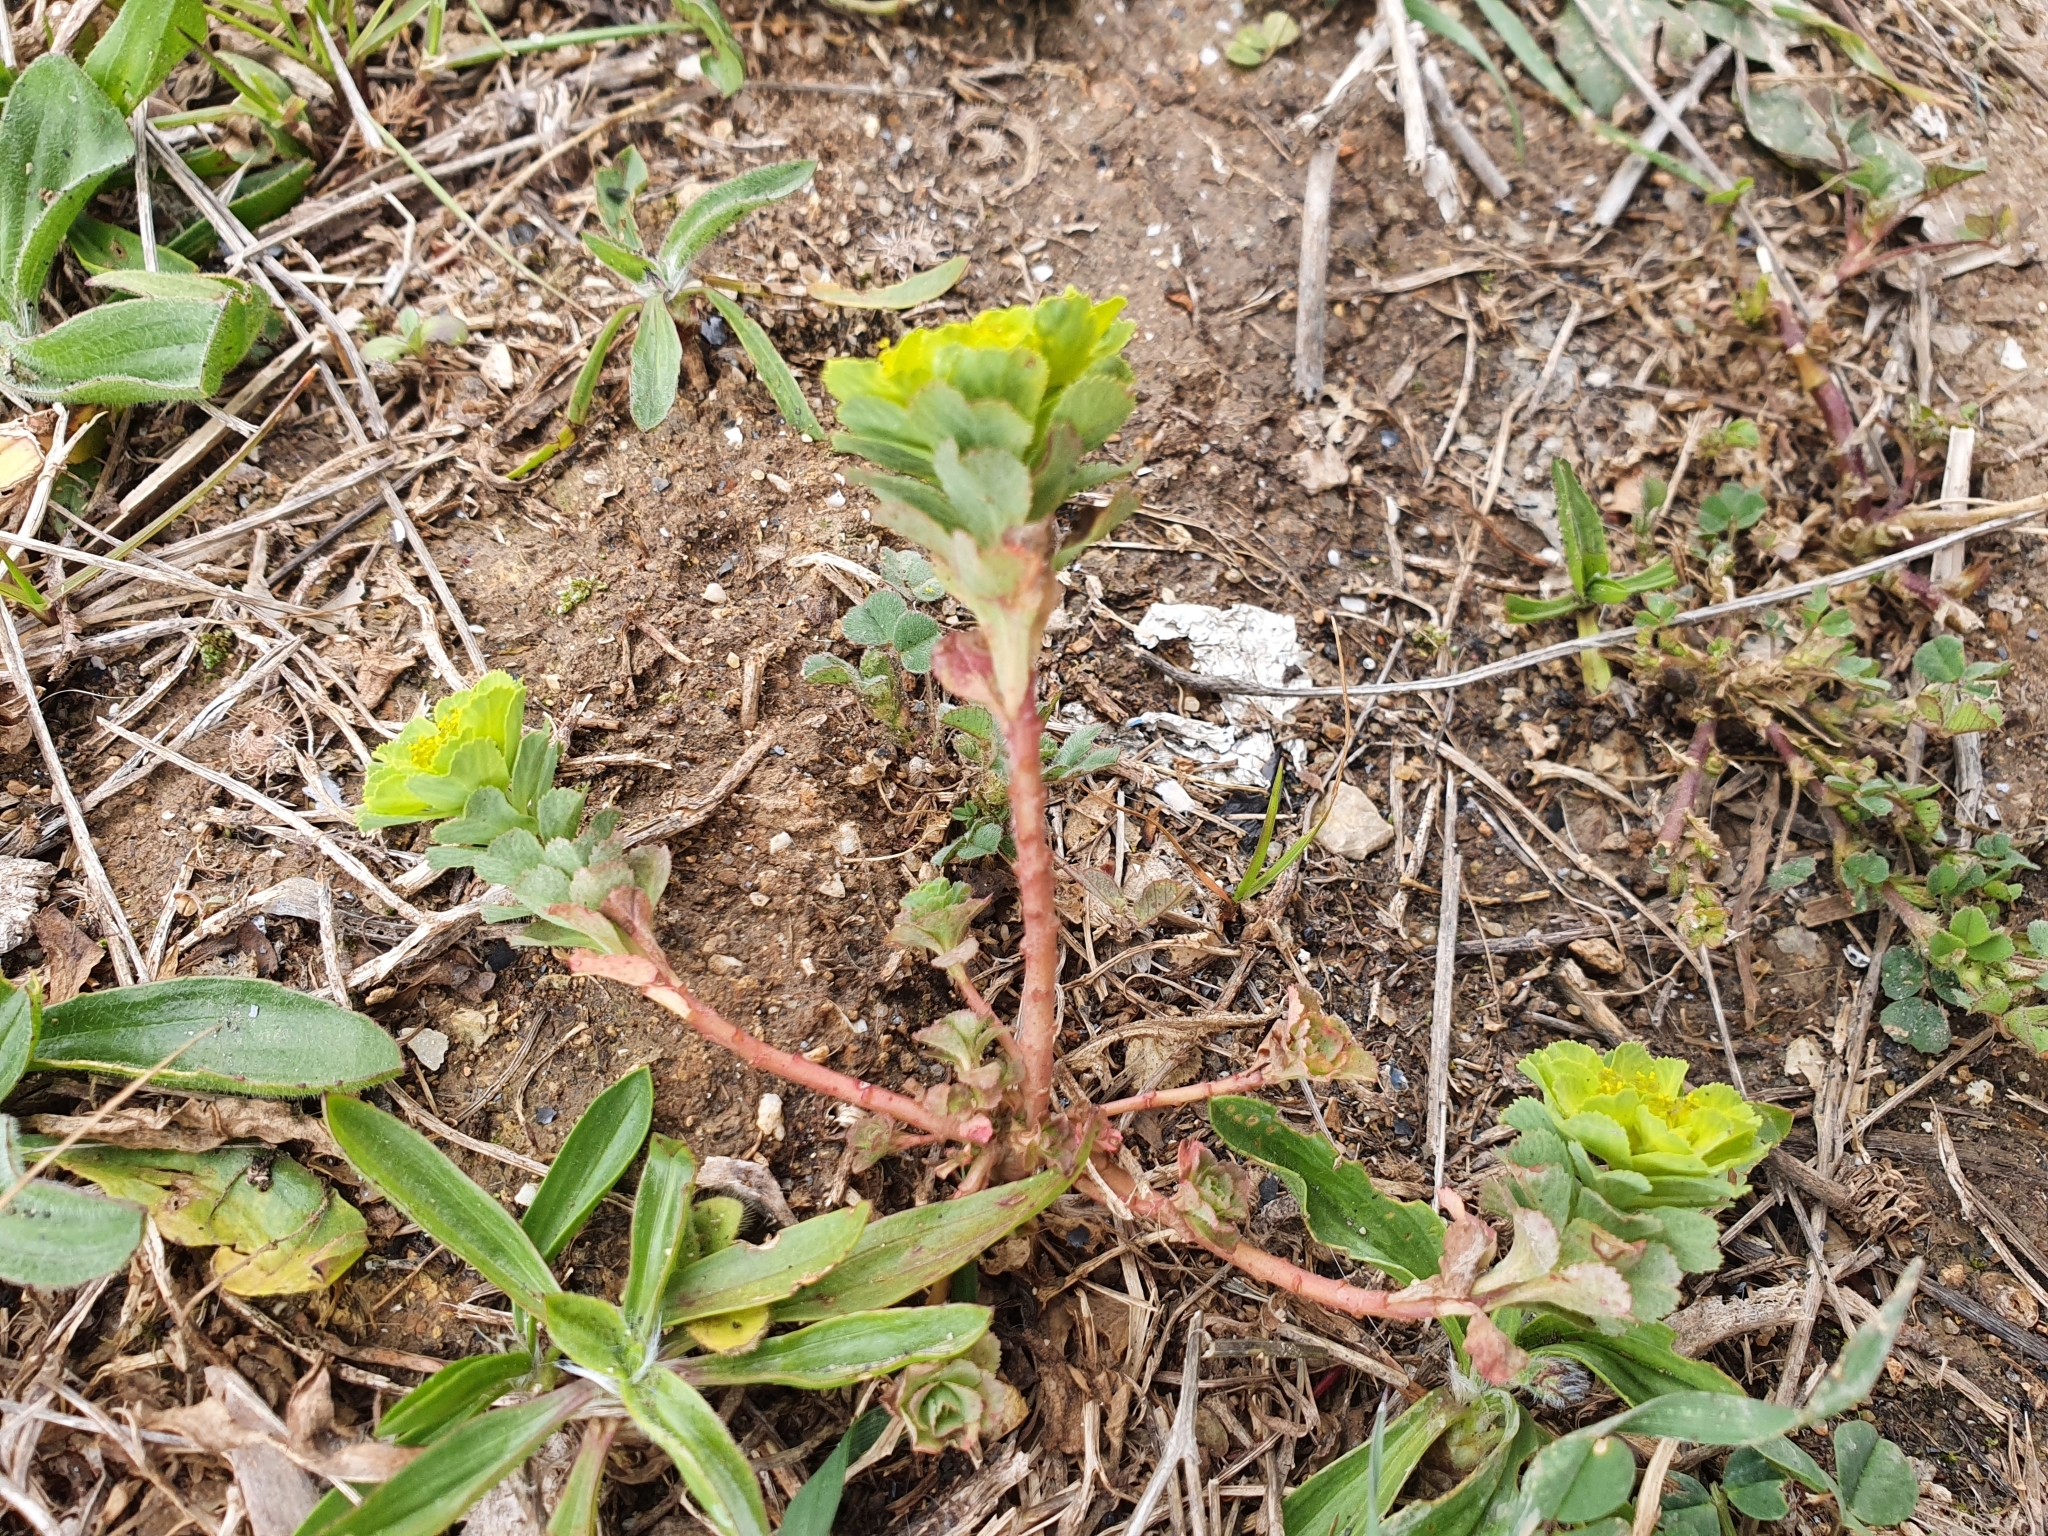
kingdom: Plantae
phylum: Tracheophyta
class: Magnoliopsida
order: Malpighiales
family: Euphorbiaceae
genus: Euphorbia
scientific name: Euphorbia helioscopia
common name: Sun spurge
